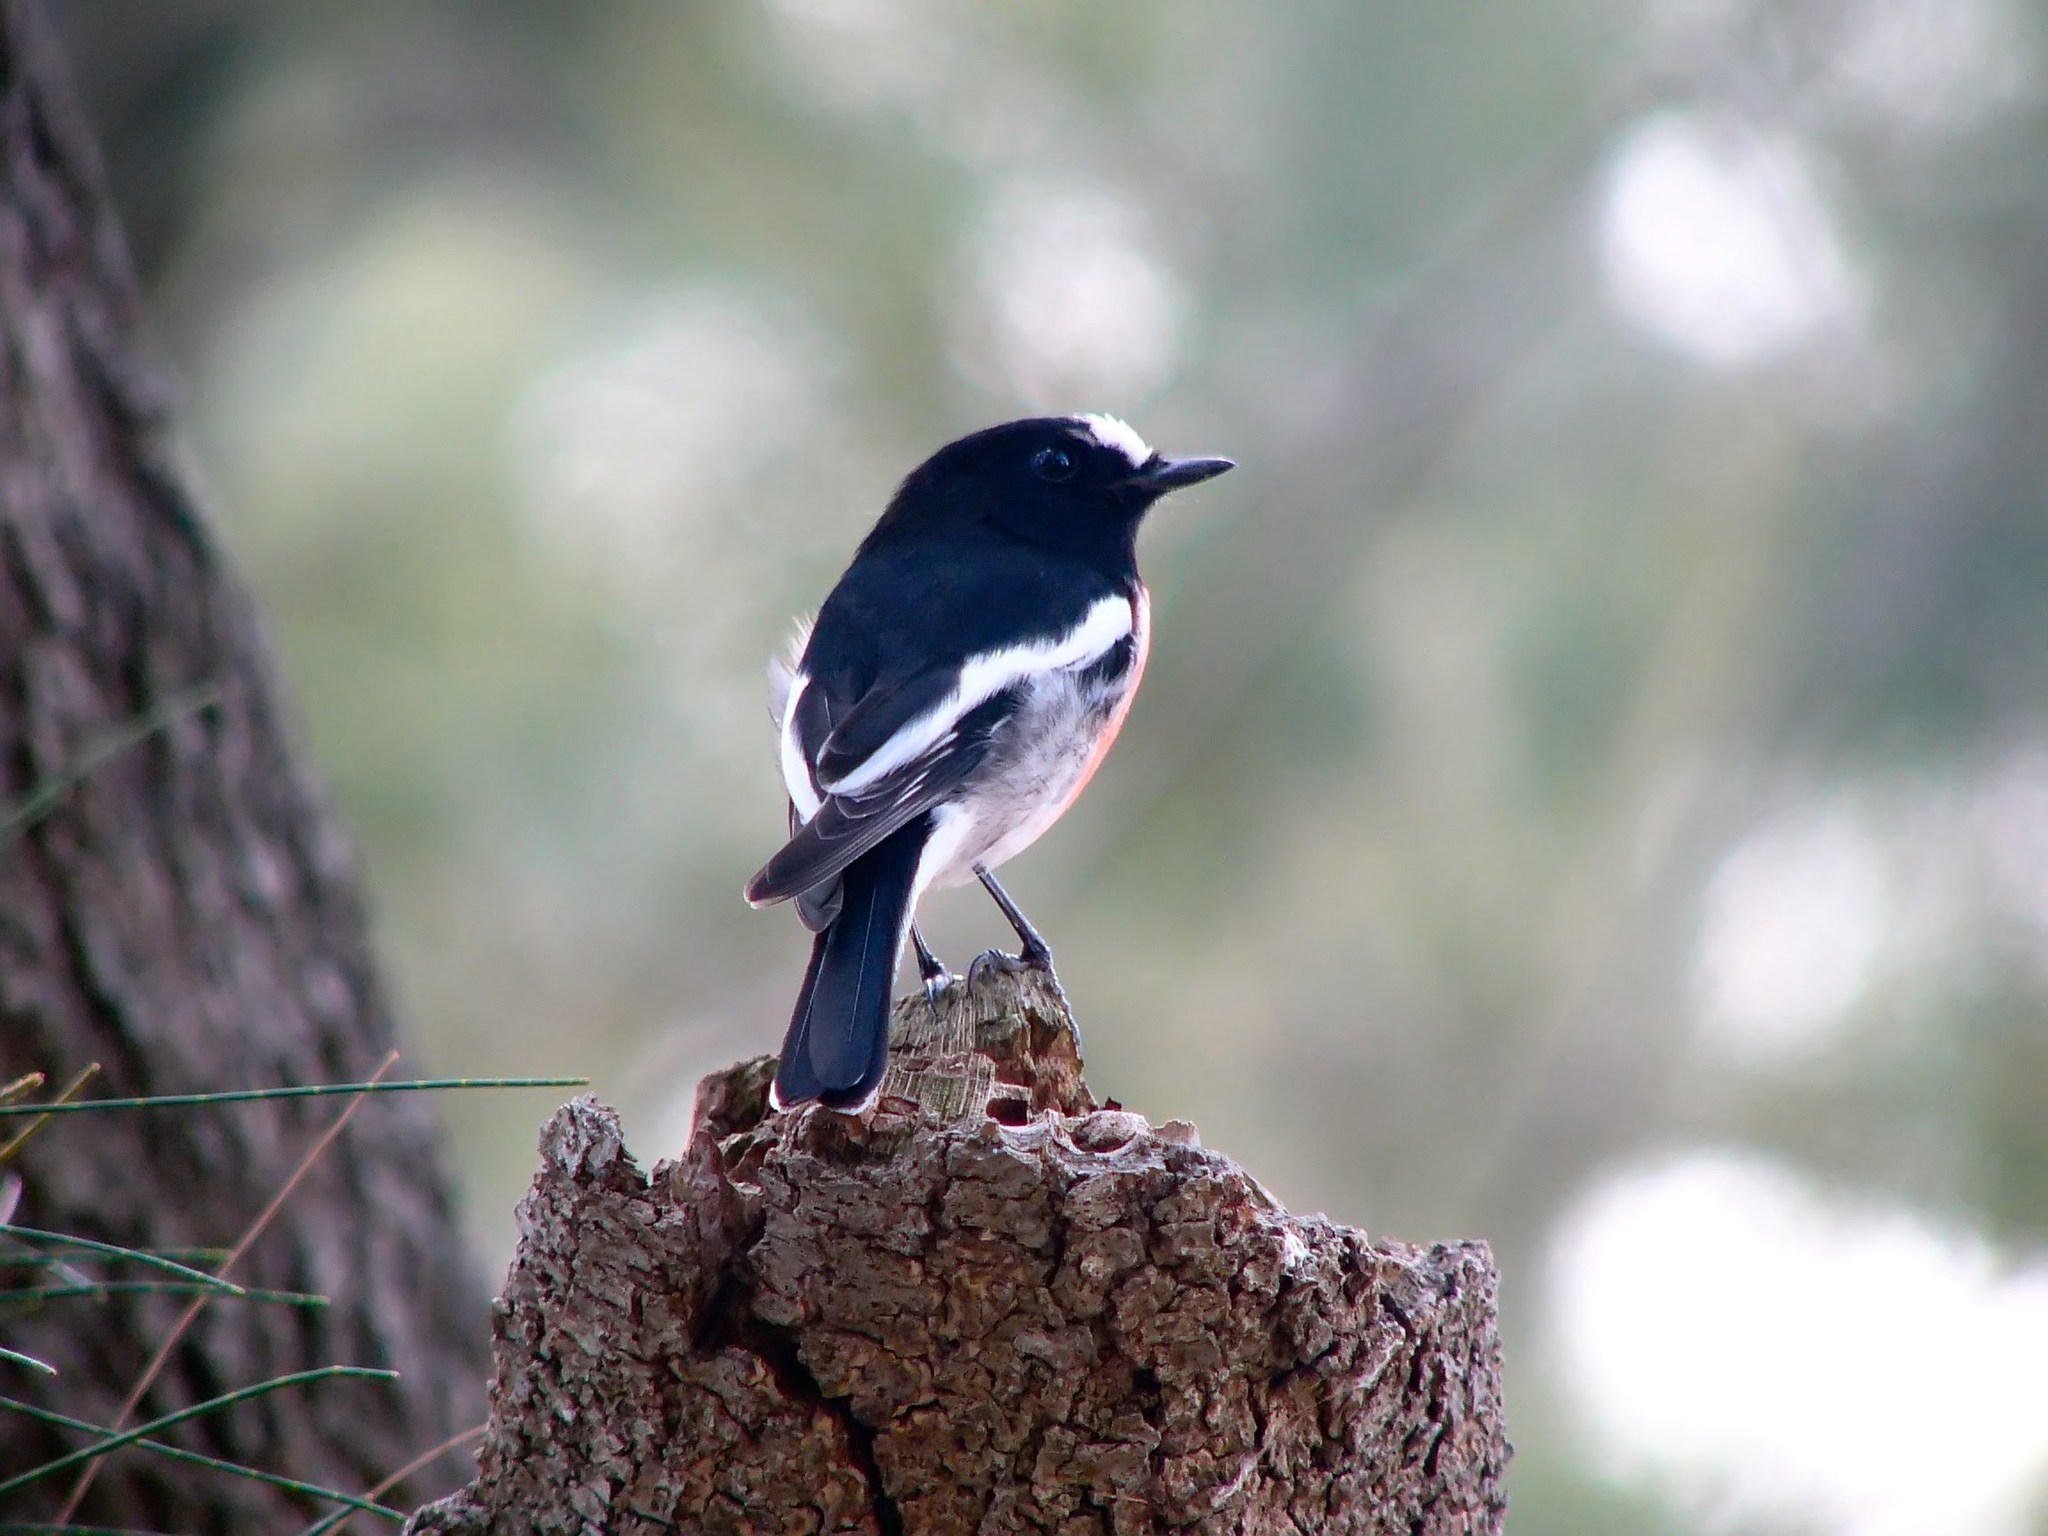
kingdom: Animalia
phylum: Chordata
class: Aves
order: Passeriformes
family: Petroicidae
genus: Petroica
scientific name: Petroica boodang
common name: Scarlet robin
